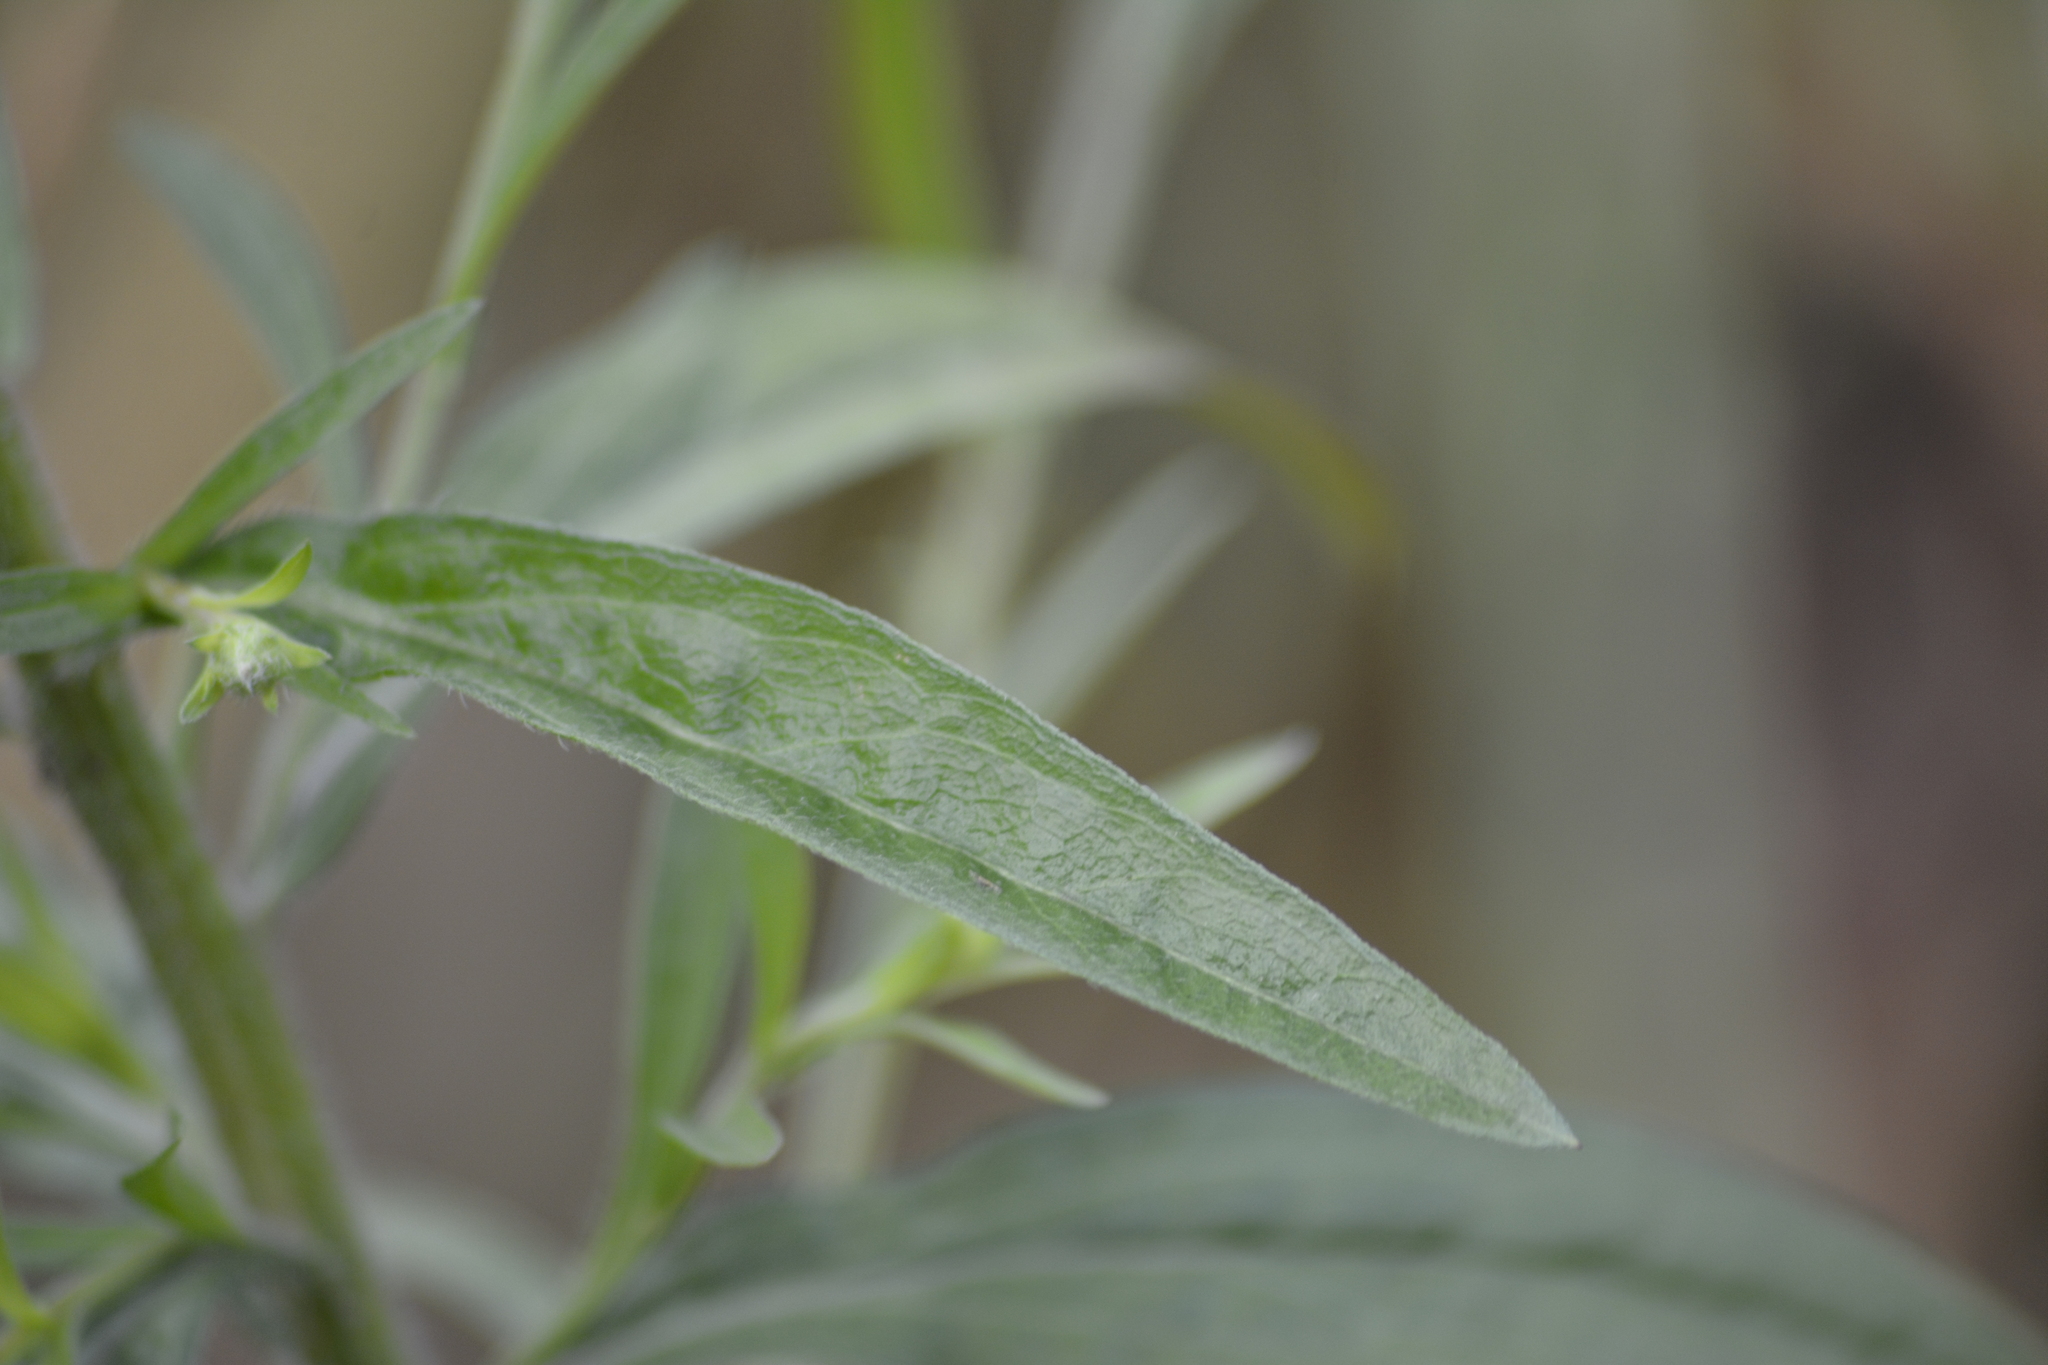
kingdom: Plantae
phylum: Tracheophyta
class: Magnoliopsida
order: Asterales
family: Asteraceae
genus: Erigeron
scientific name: Erigeron annuus
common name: Tall fleabane
